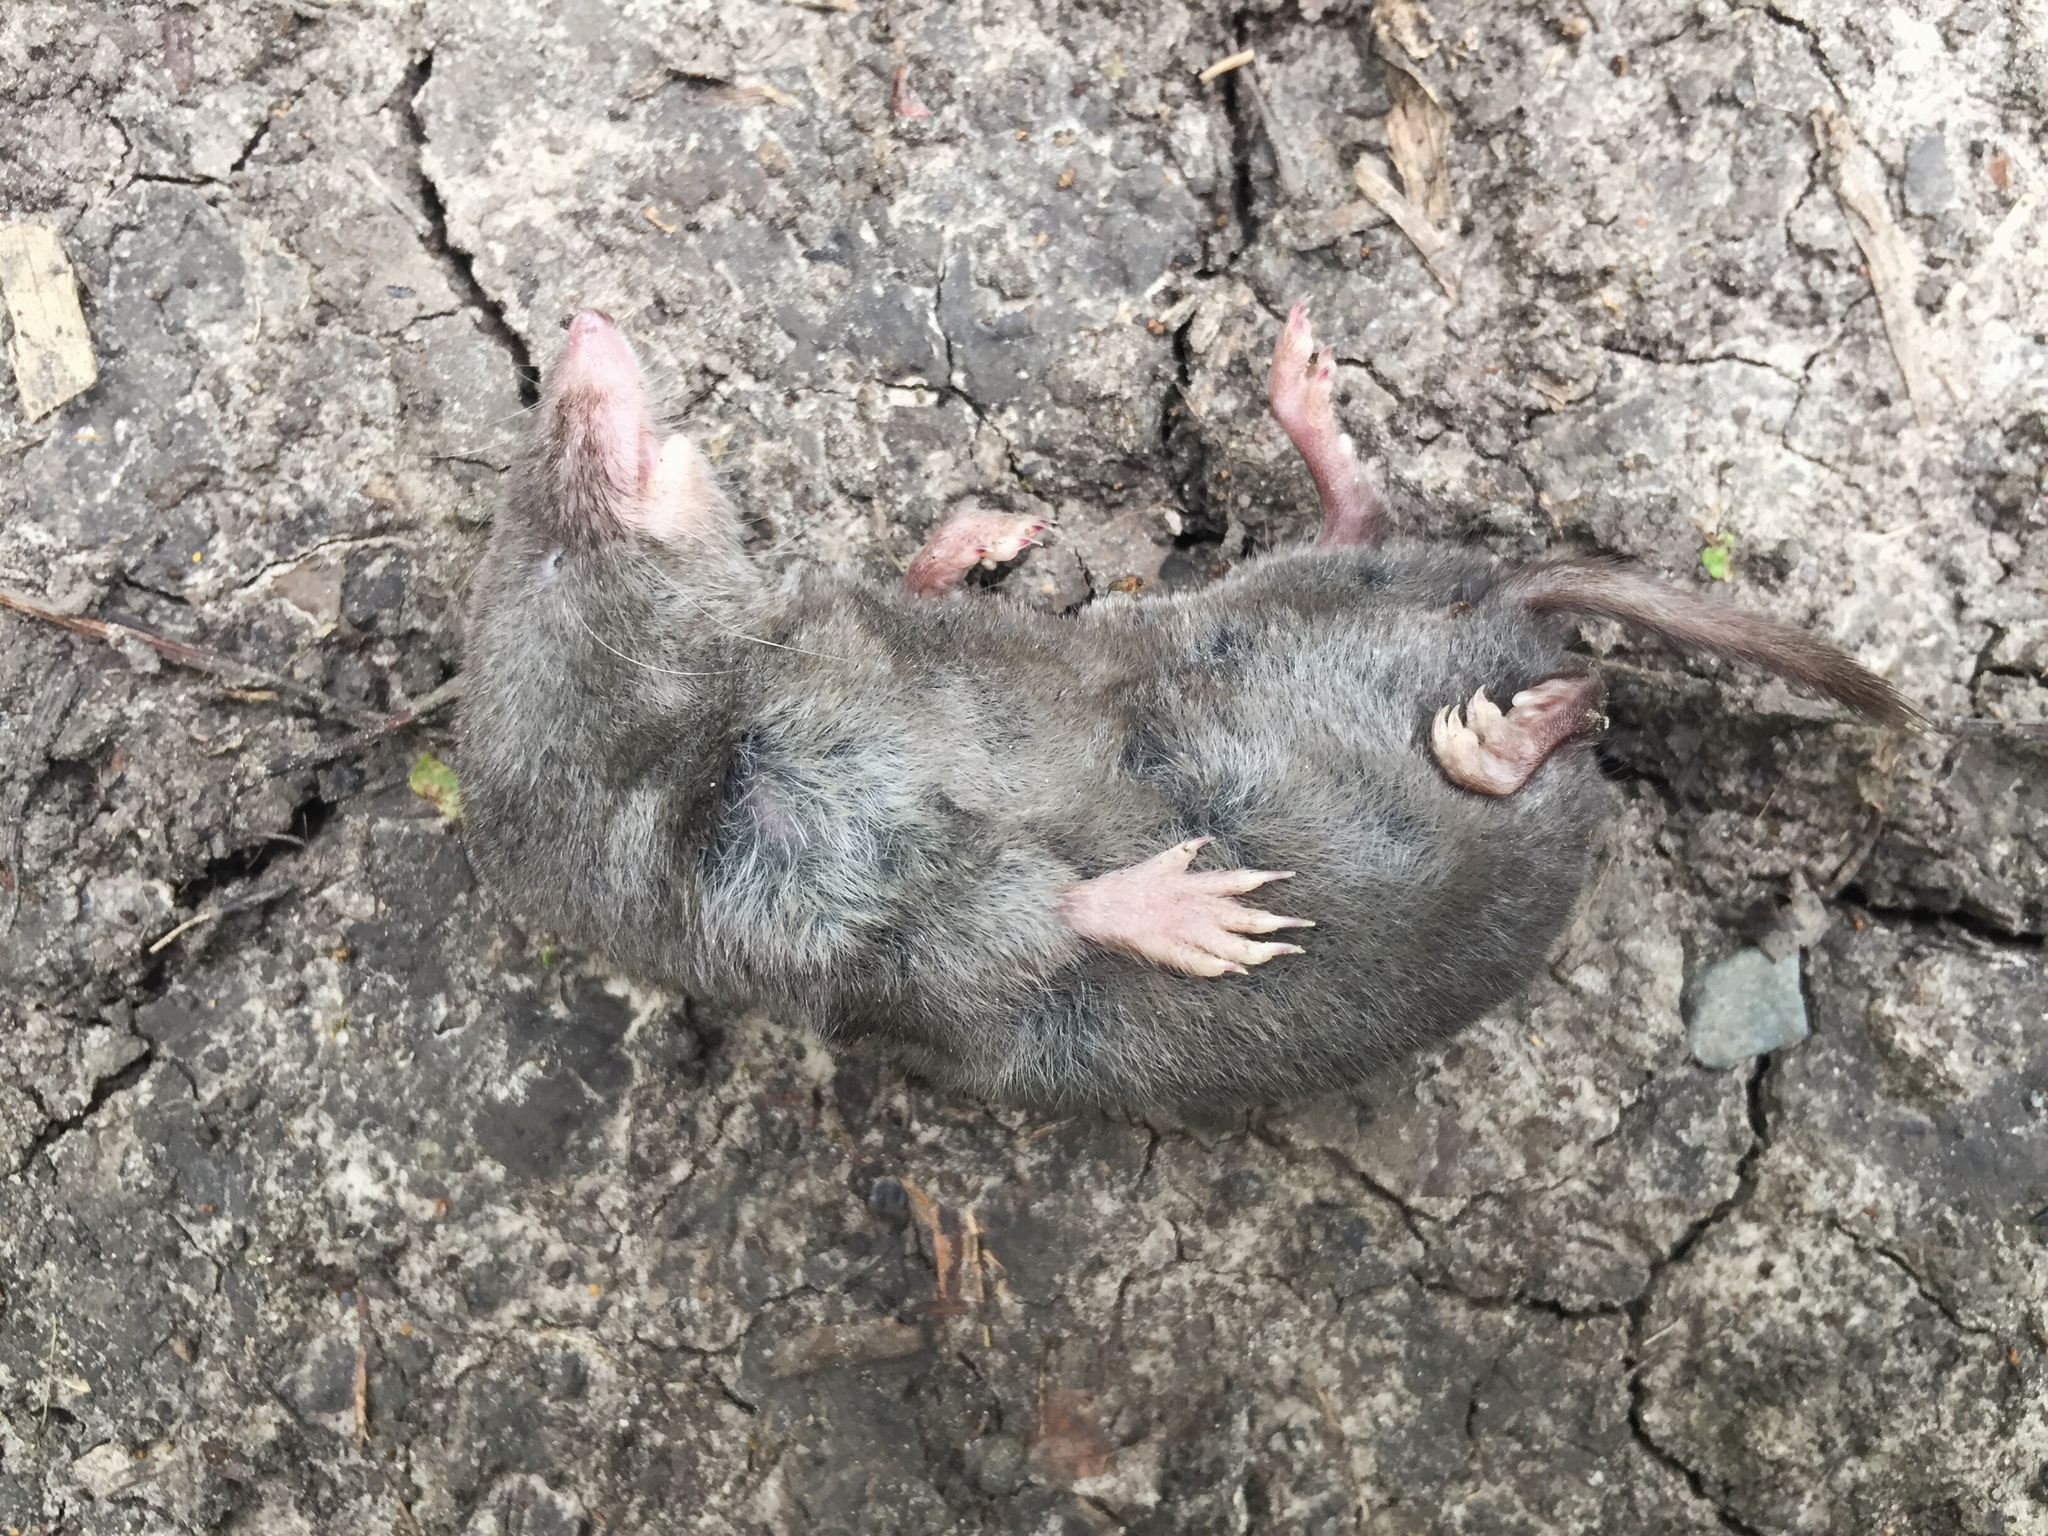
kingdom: Animalia
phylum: Chordata
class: Mammalia
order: Soricomorpha
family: Soricidae
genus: Blarina
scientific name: Blarina brevicauda
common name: Northern short-tailed shrew
